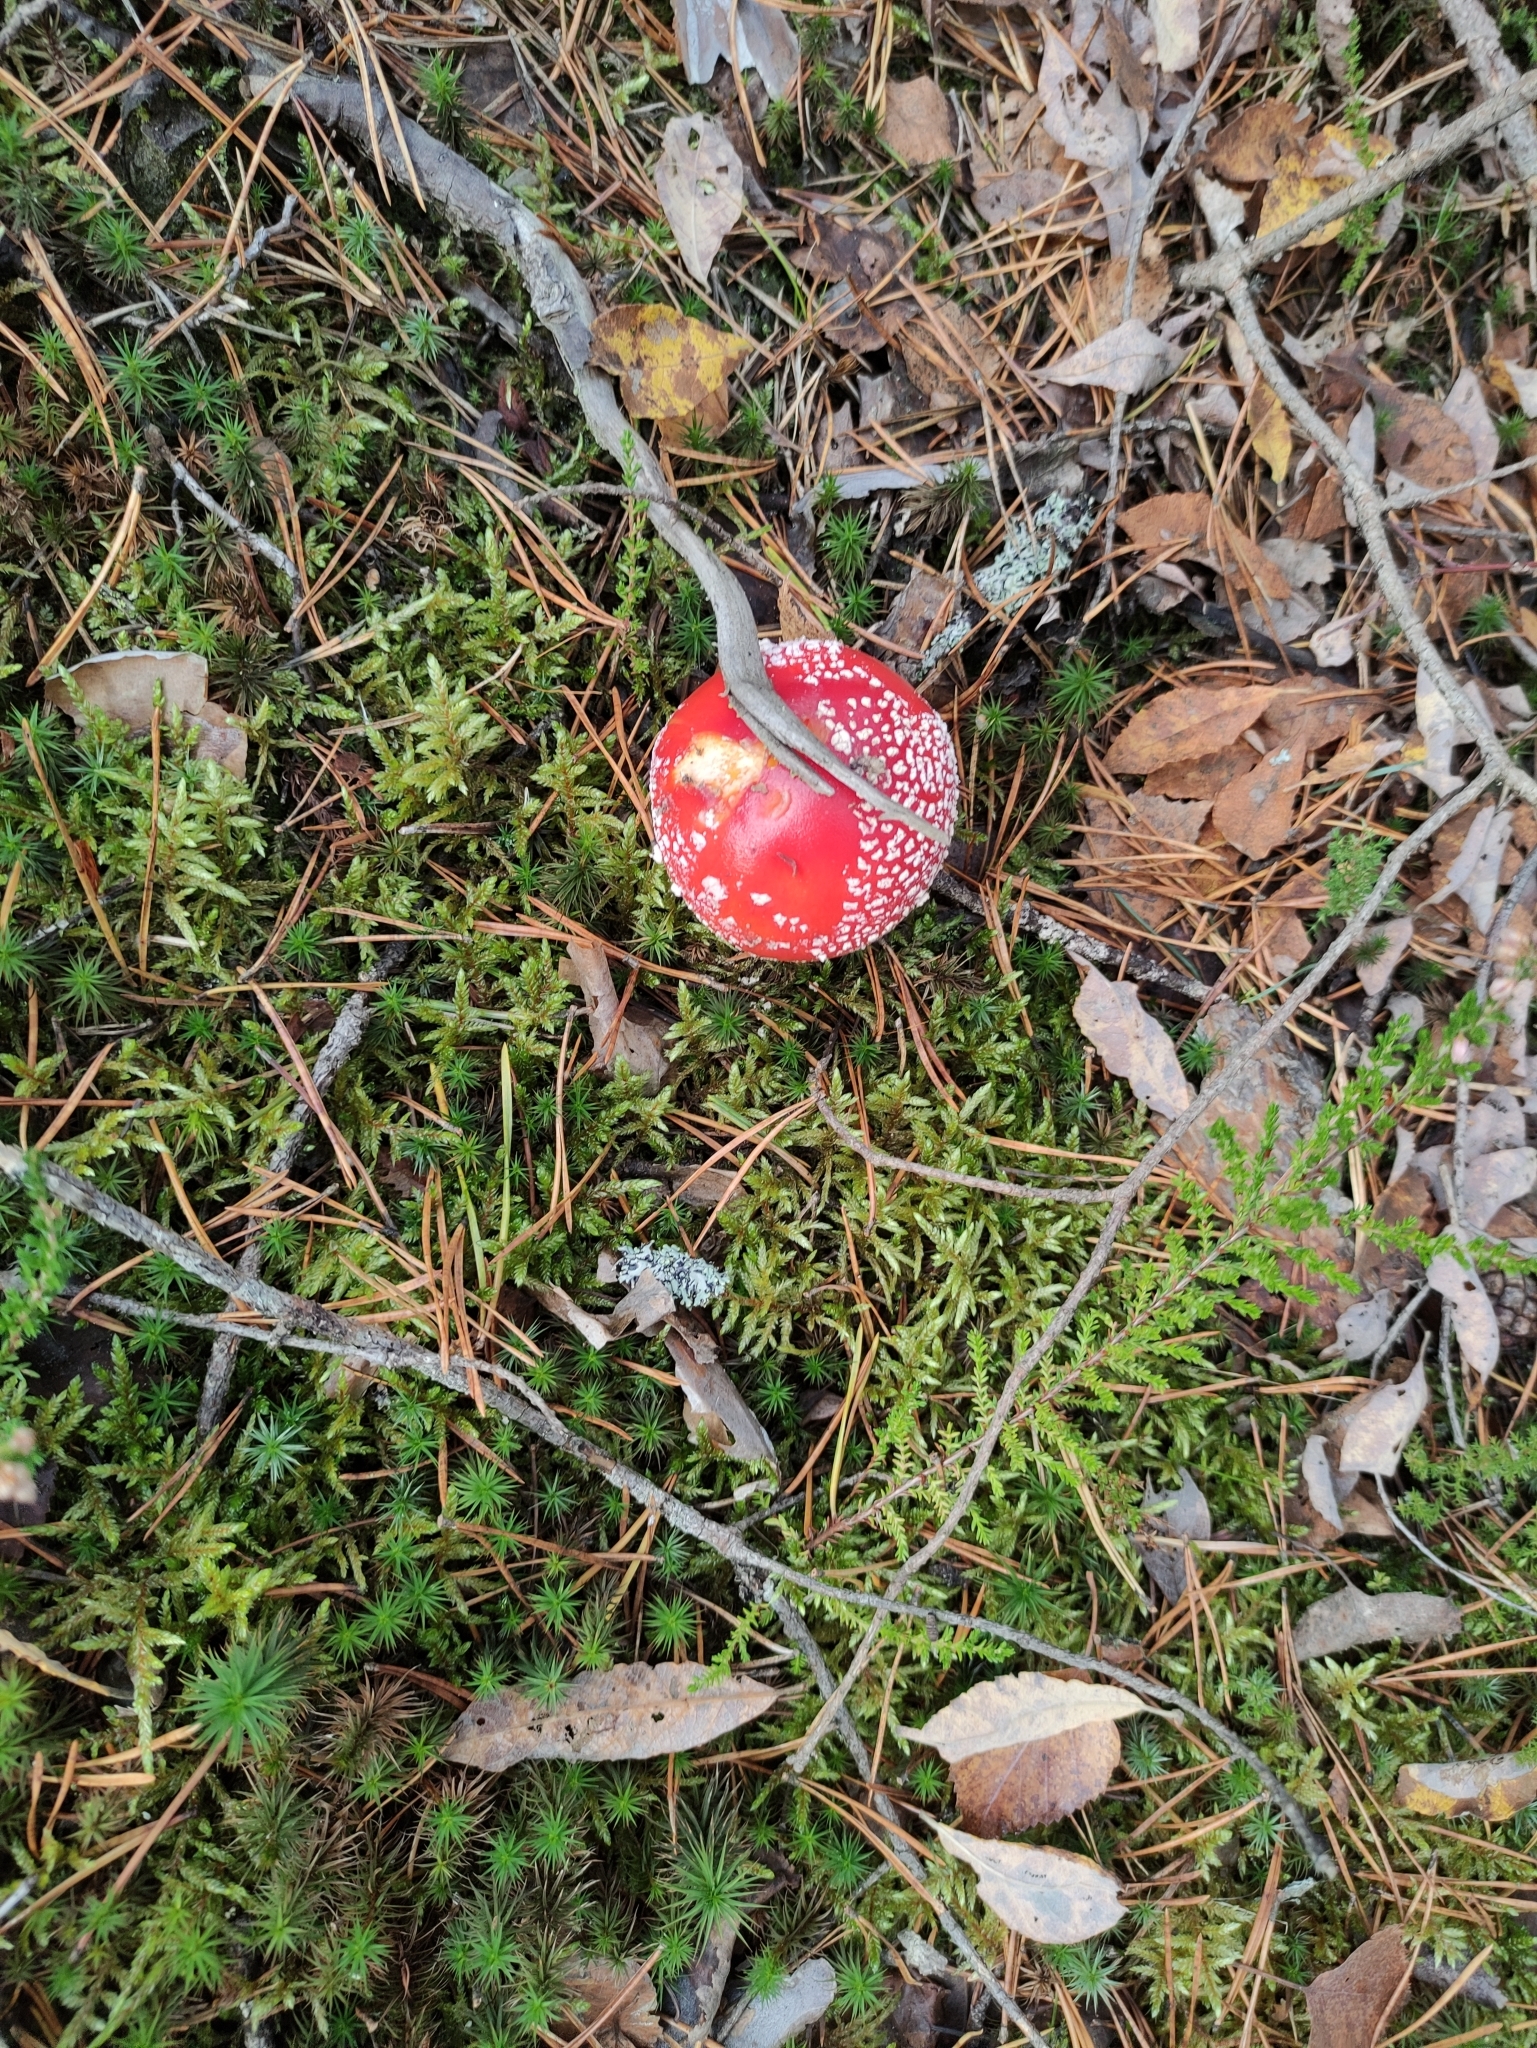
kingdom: Fungi
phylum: Basidiomycota
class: Agaricomycetes
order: Agaricales
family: Amanitaceae
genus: Amanita
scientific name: Amanita muscaria
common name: Fly agaric
